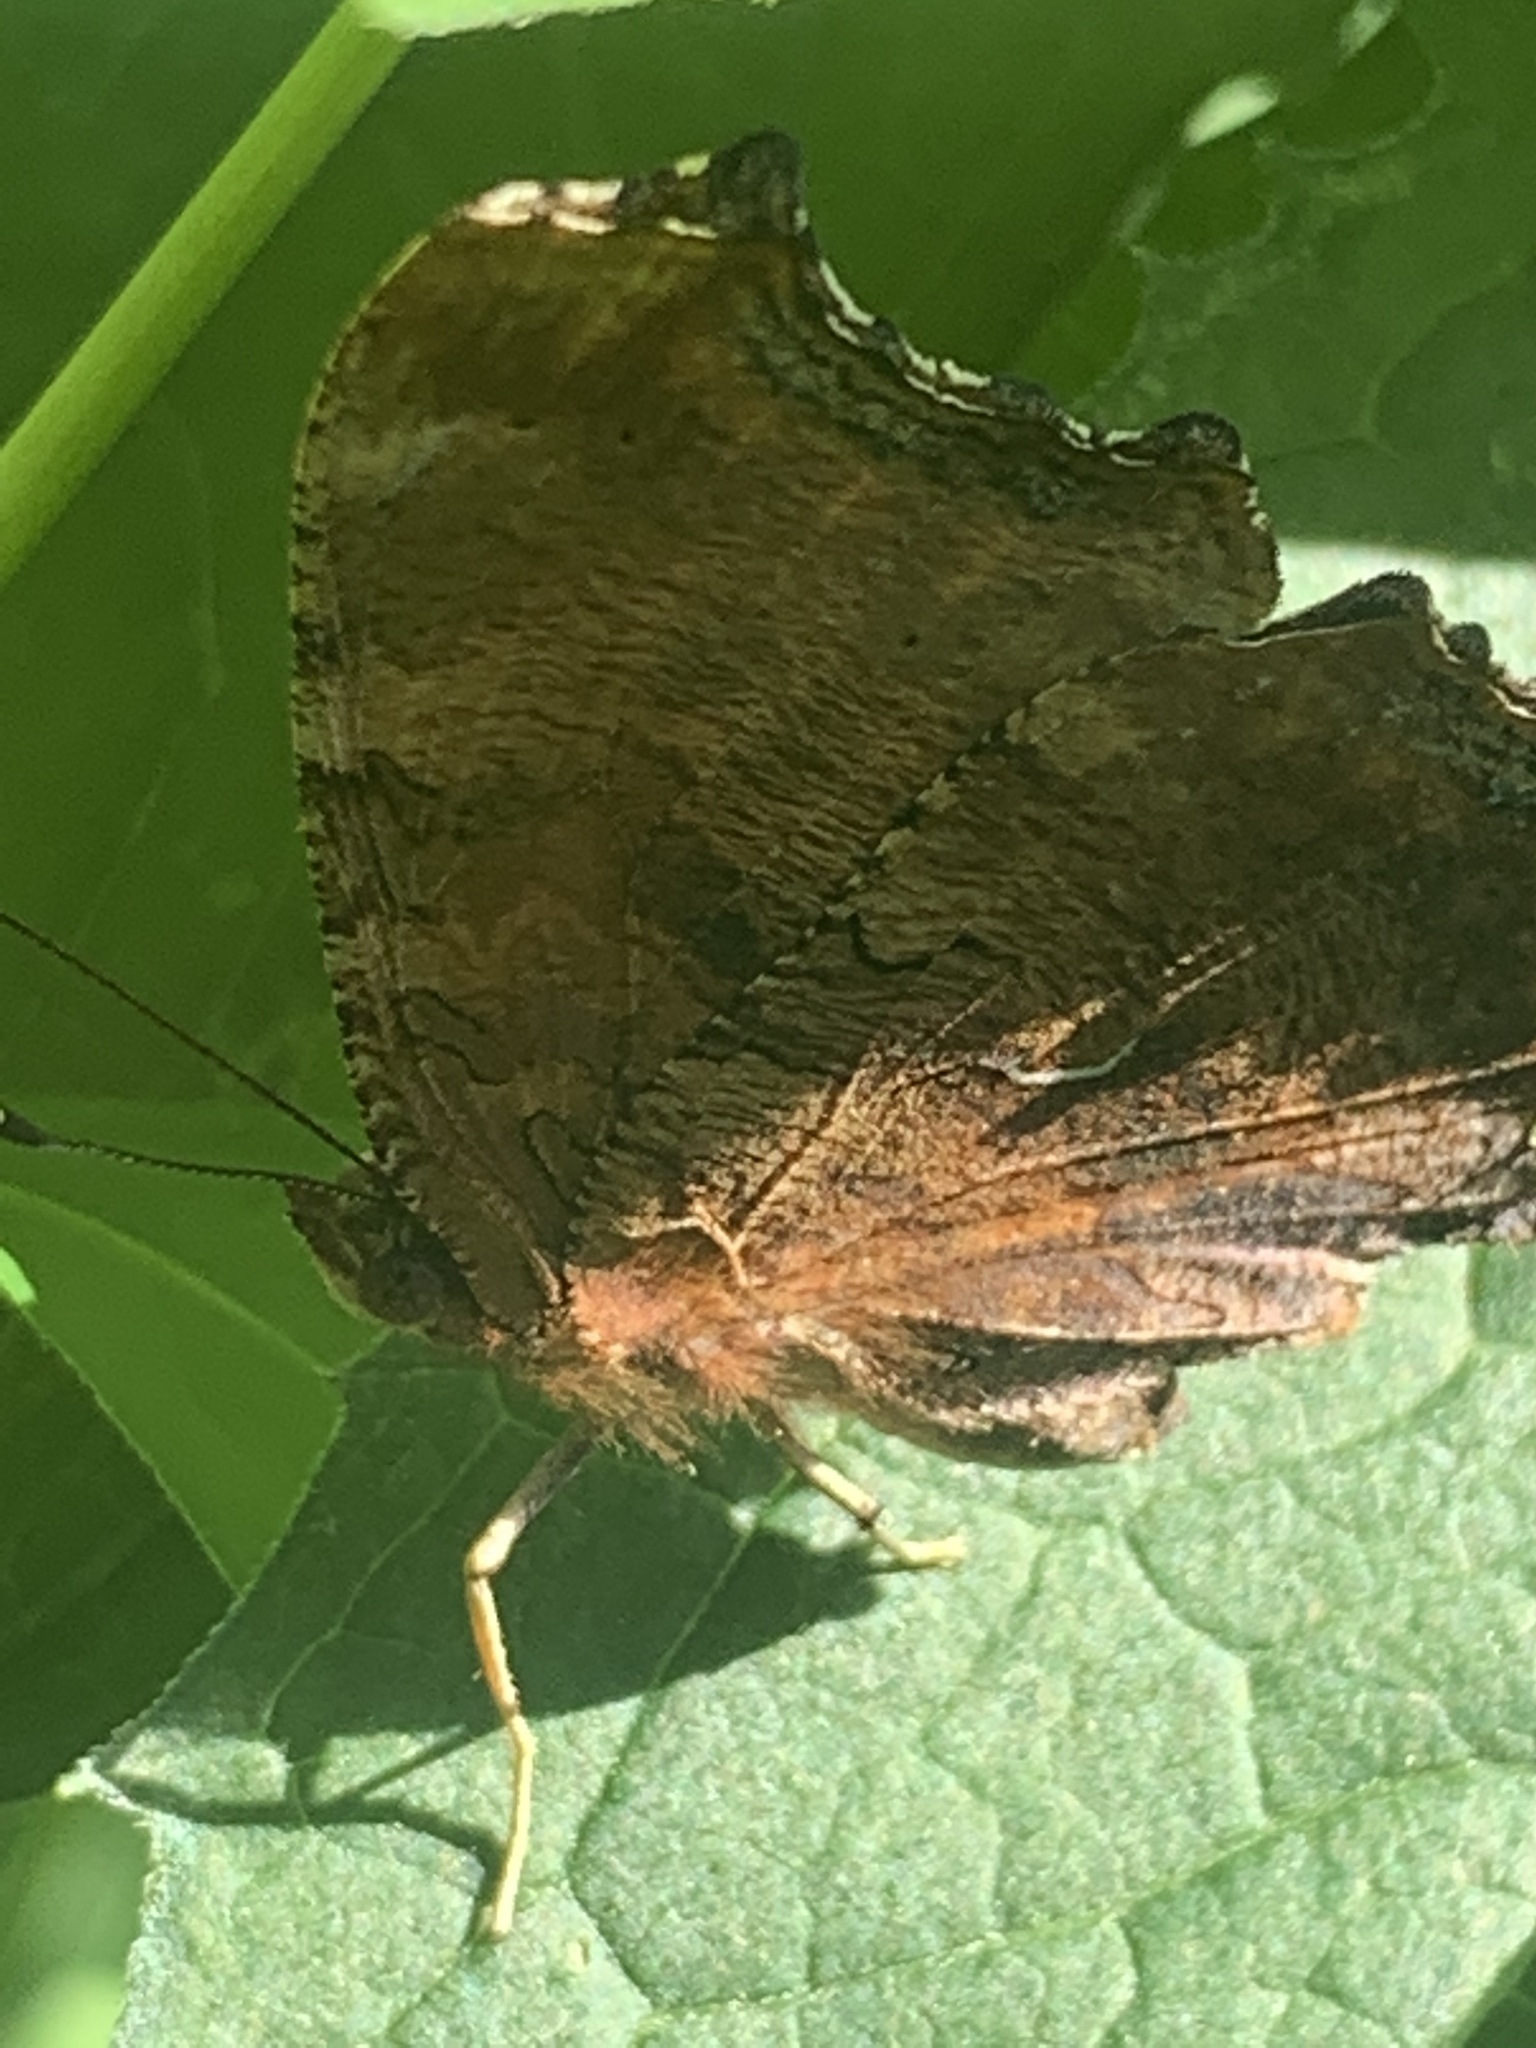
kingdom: Animalia
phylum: Arthropoda
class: Insecta
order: Lepidoptera
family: Nymphalidae
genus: Polygonia
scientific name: Polygonia comma
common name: Eastern comma
